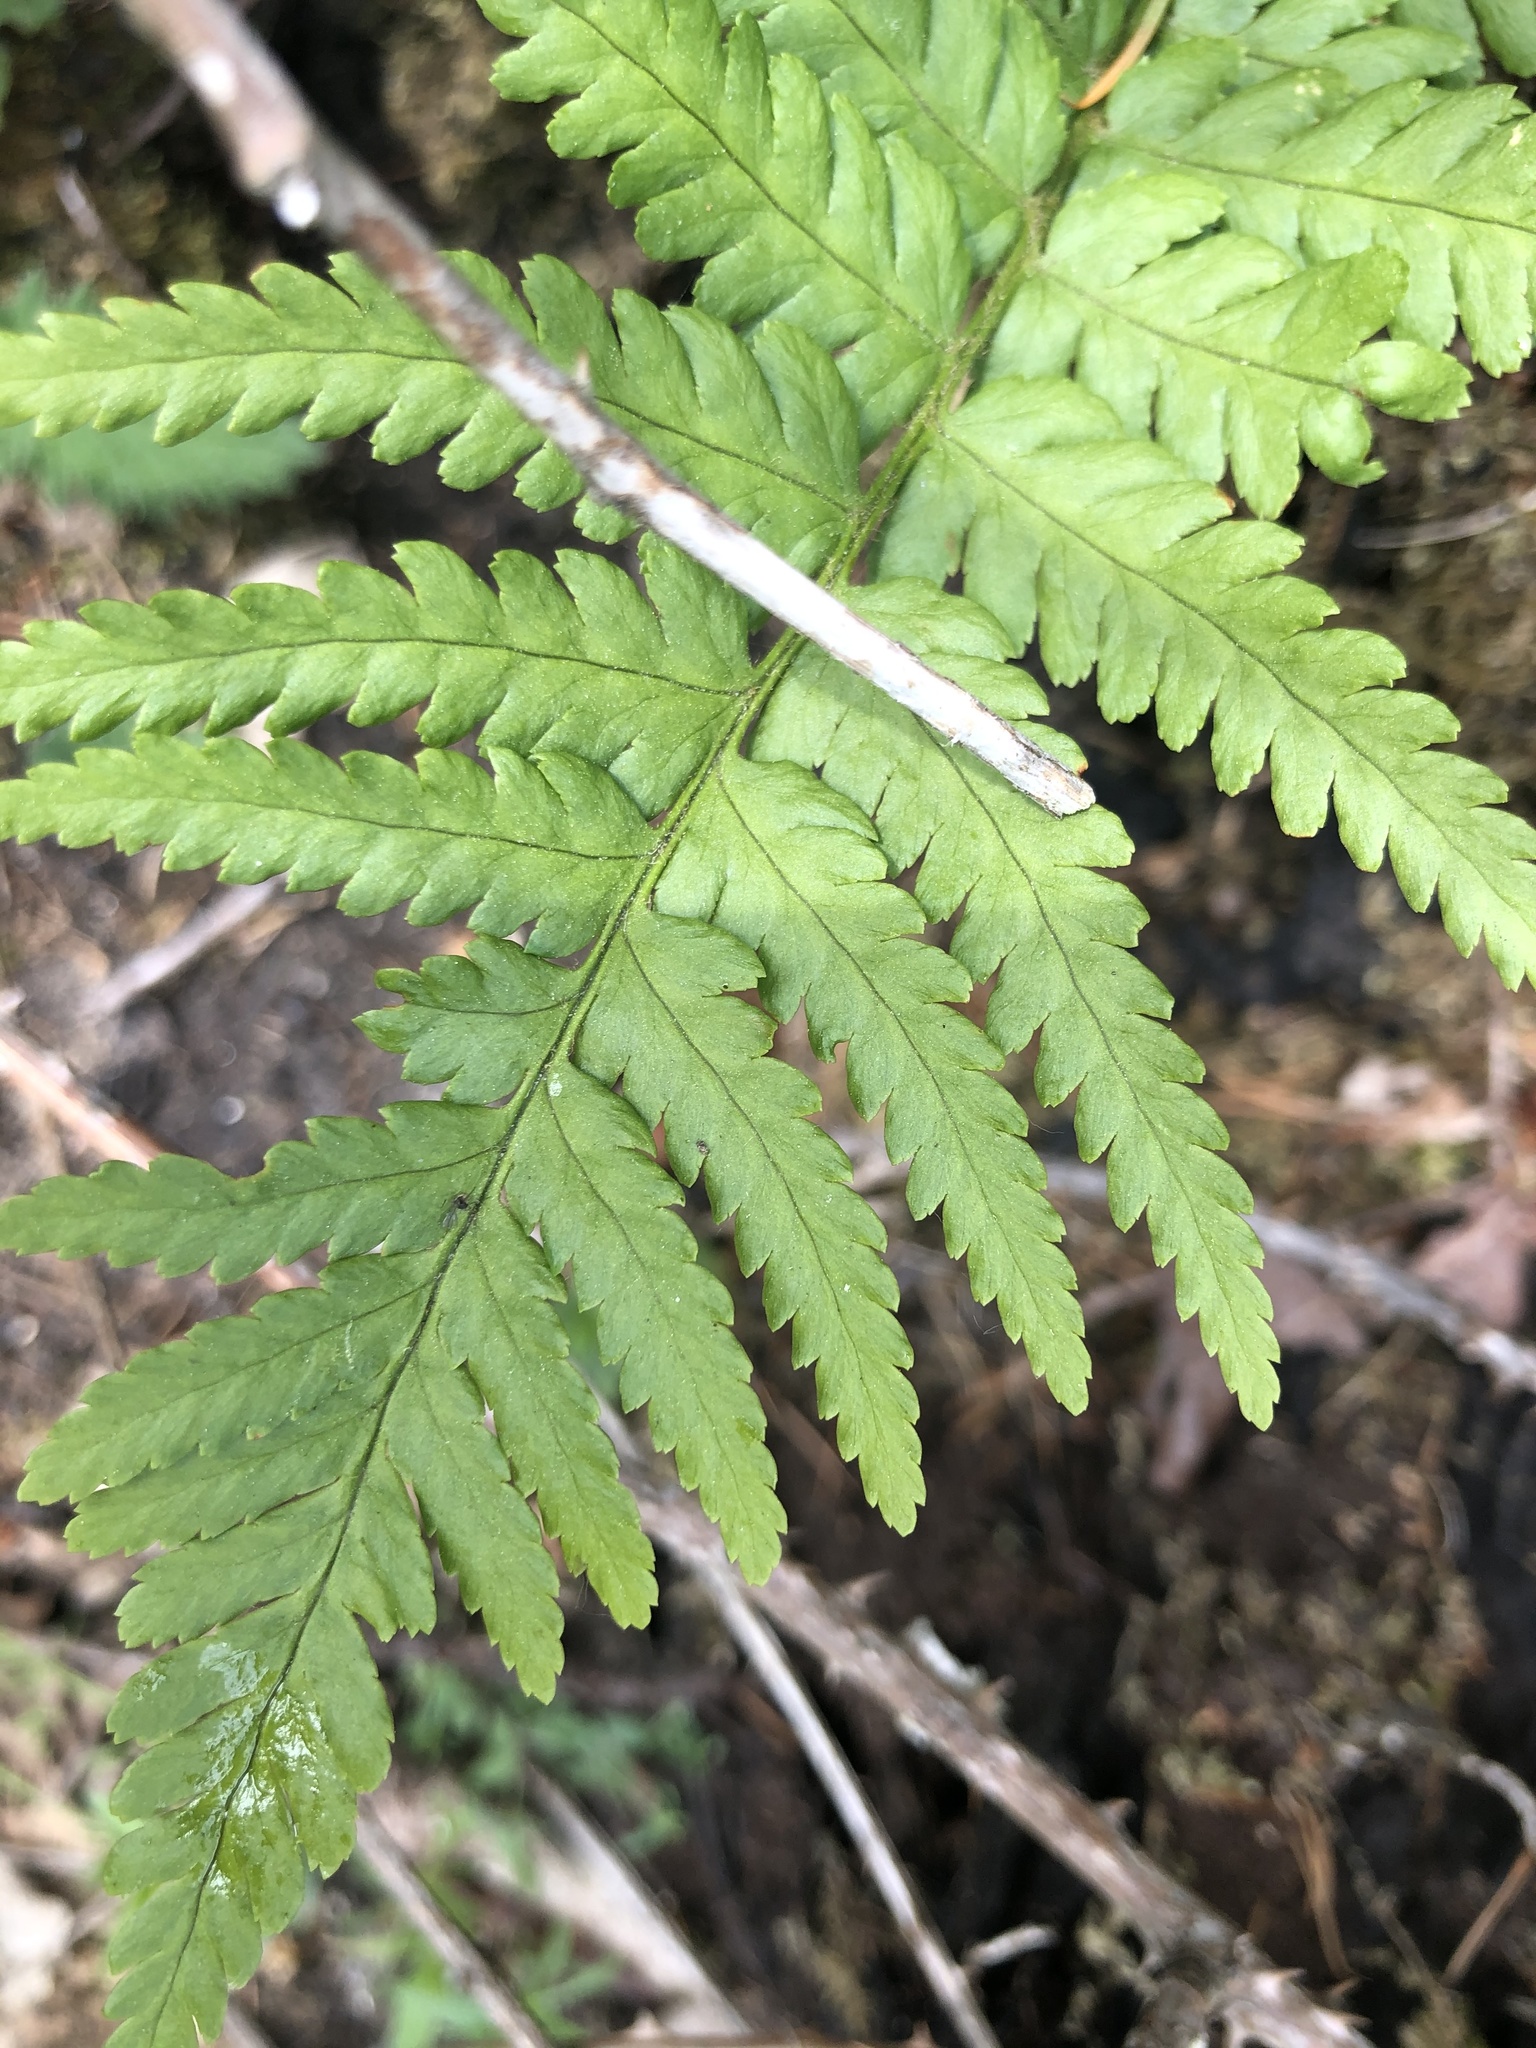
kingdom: Plantae
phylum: Tracheophyta
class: Polypodiopsida
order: Polypodiales
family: Dryopteridaceae
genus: Dryopteris
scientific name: Dryopteris filix-mas
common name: Male fern
